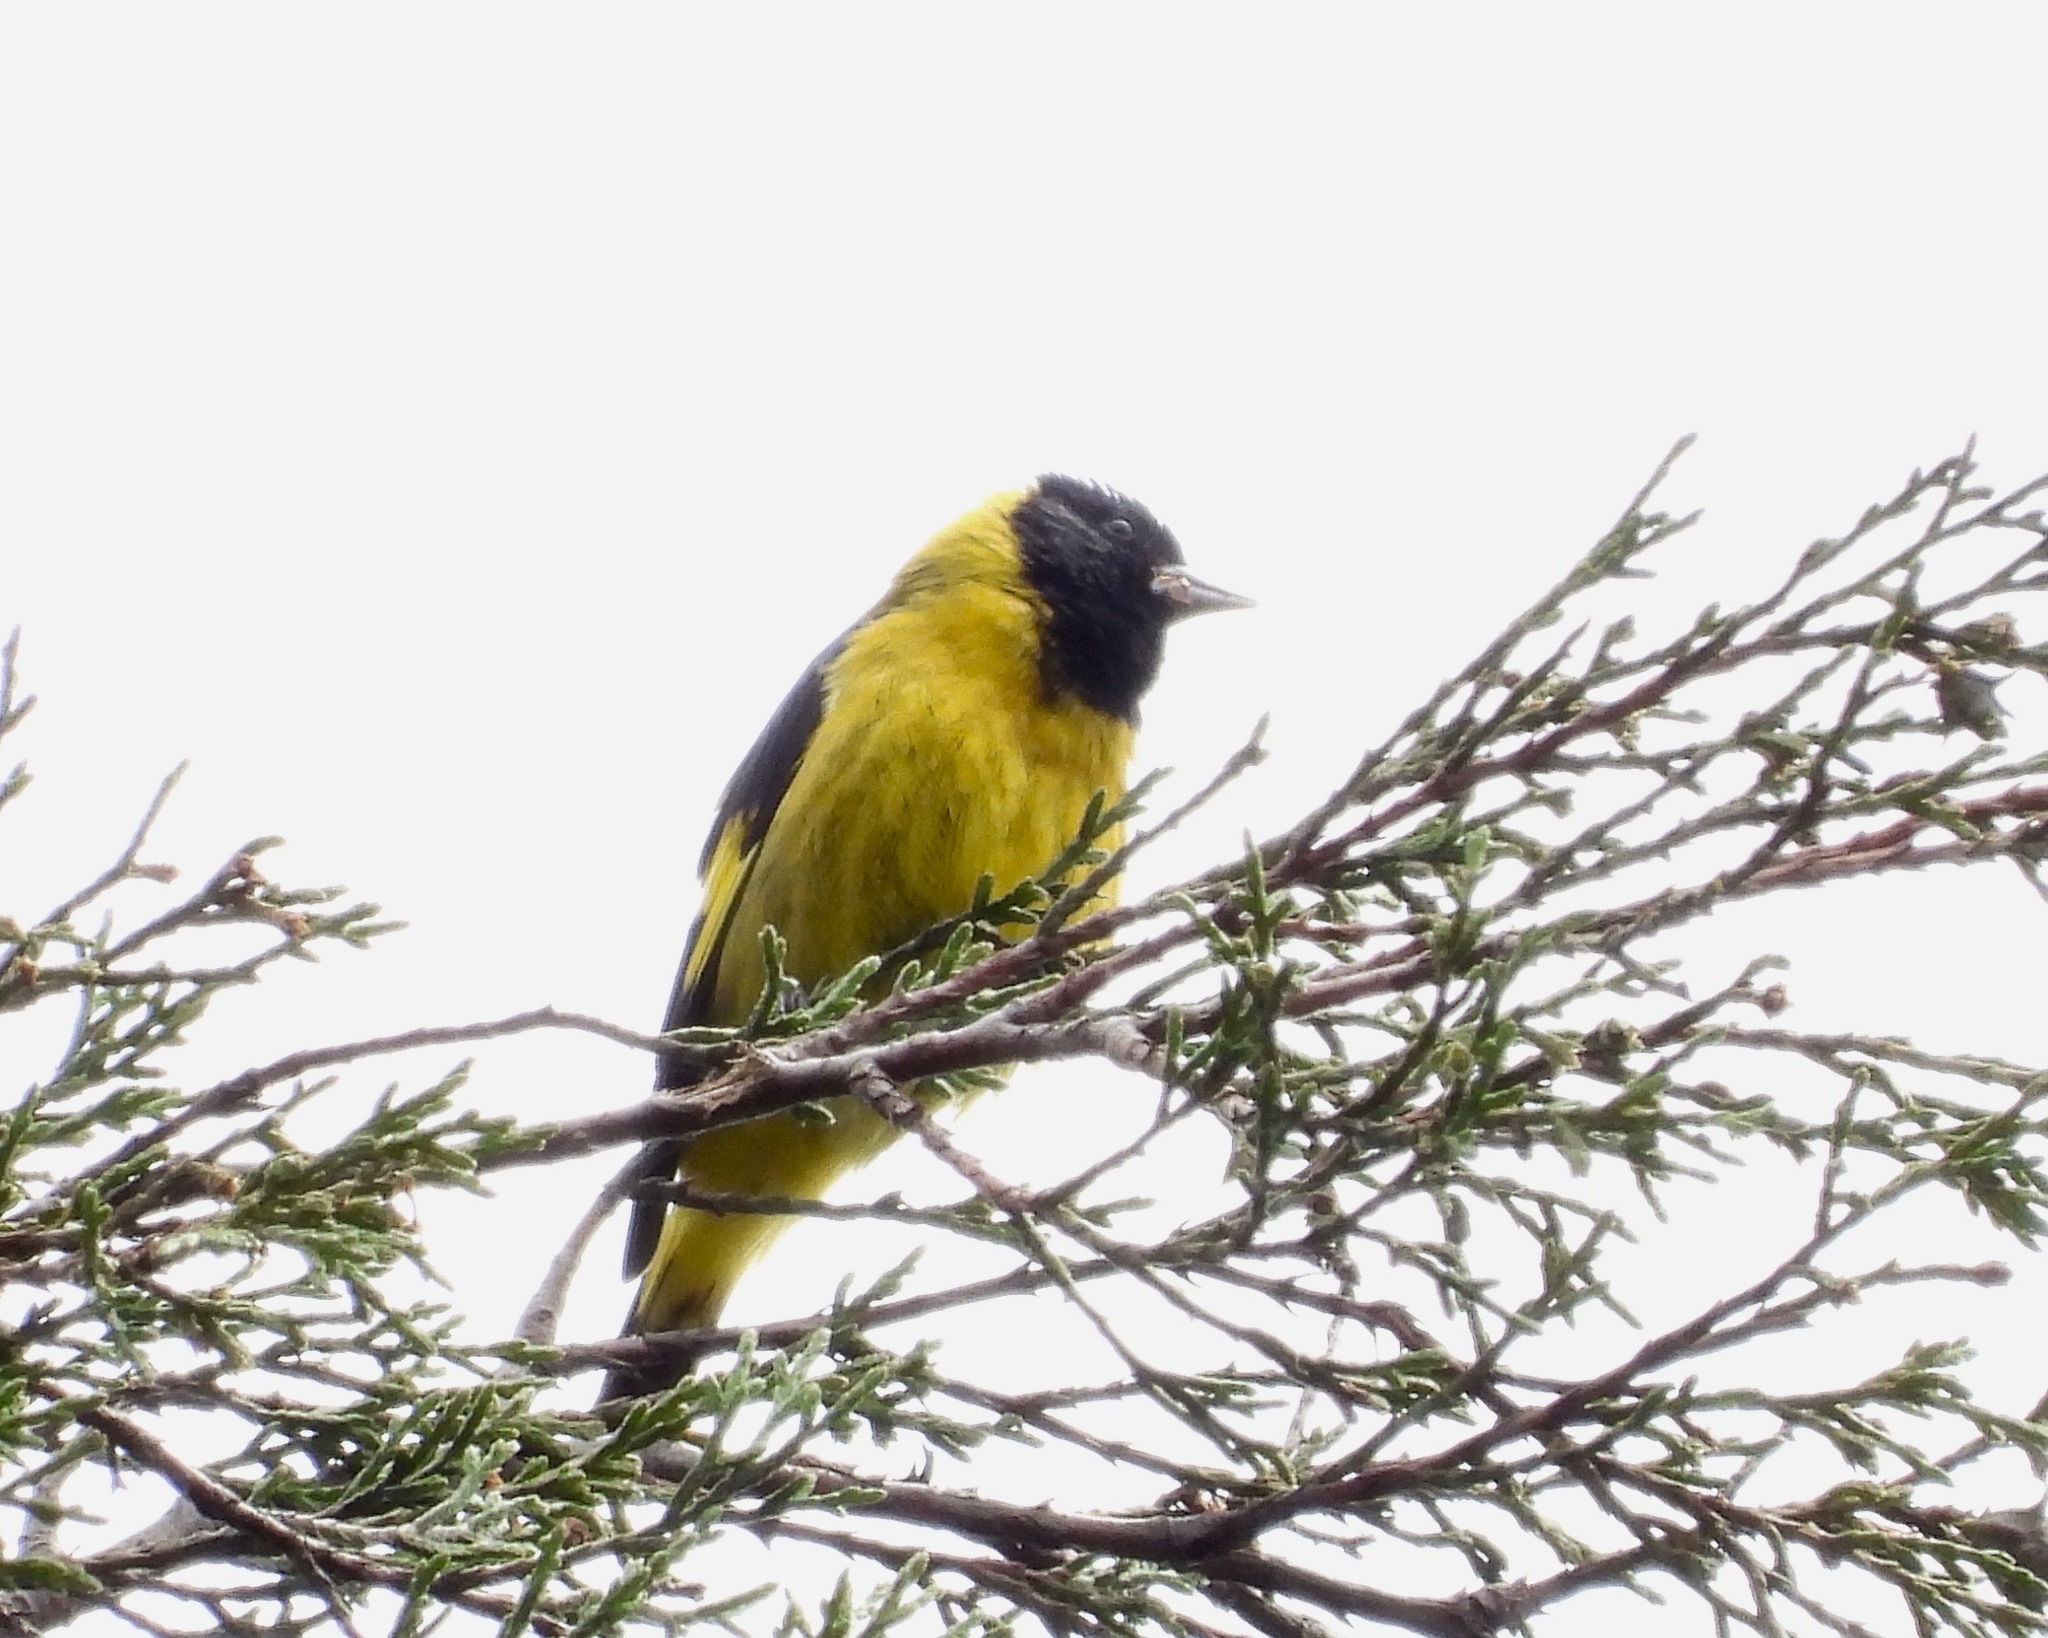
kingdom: Animalia
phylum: Chordata
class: Aves
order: Passeriformes
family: Fringillidae
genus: Spinus
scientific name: Spinus notatus
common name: Black-headed siskin
